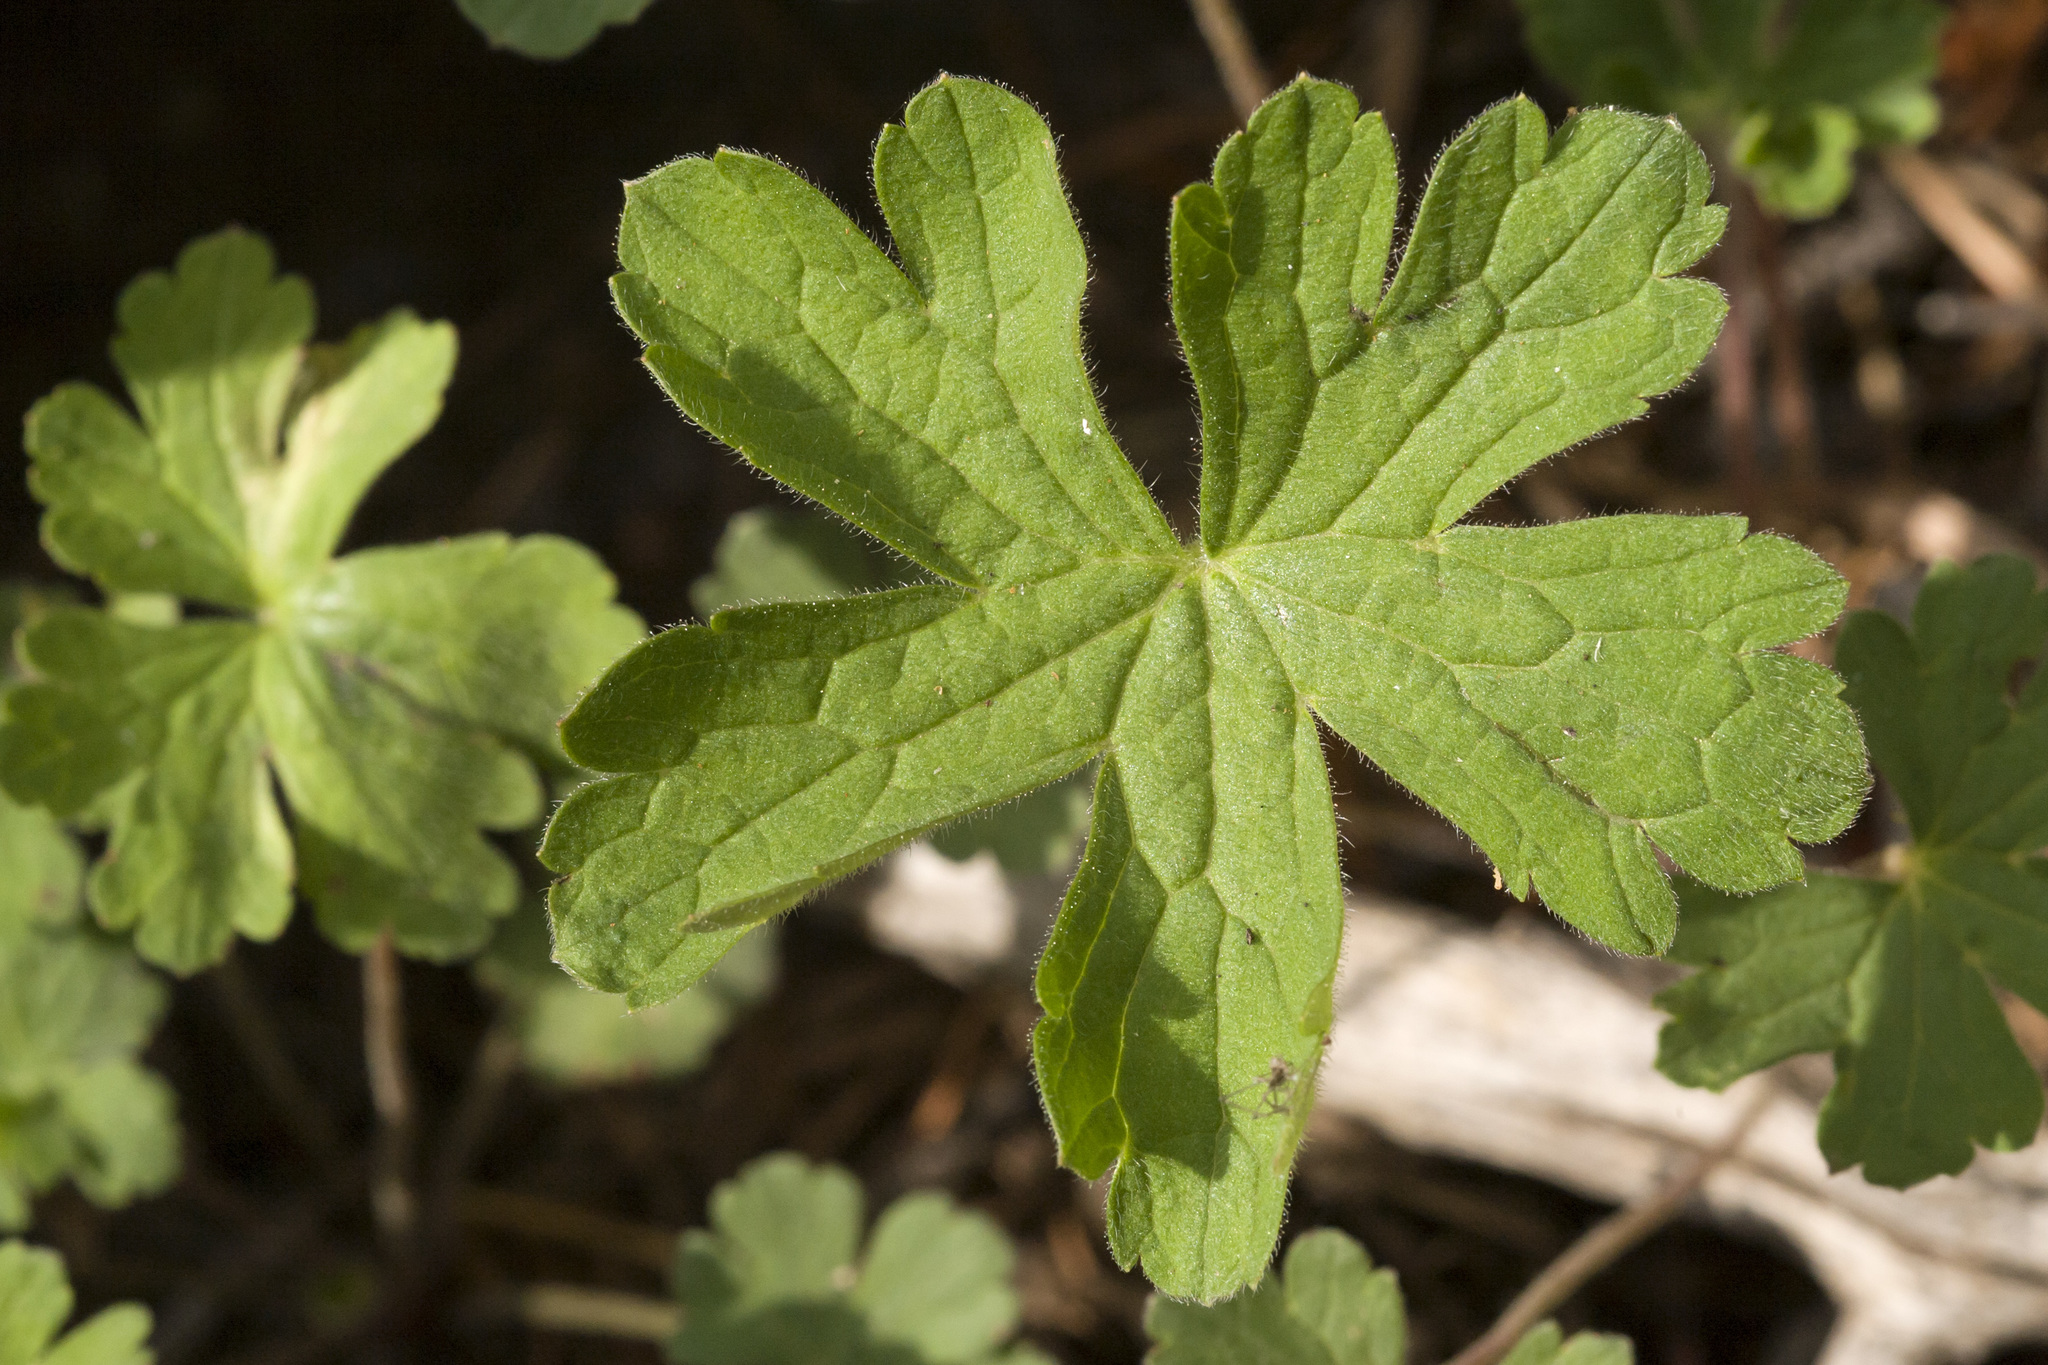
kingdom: Plantae
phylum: Tracheophyta
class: Magnoliopsida
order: Geraniales
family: Geraniaceae
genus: Geranium
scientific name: Geranium dodecatheoides
